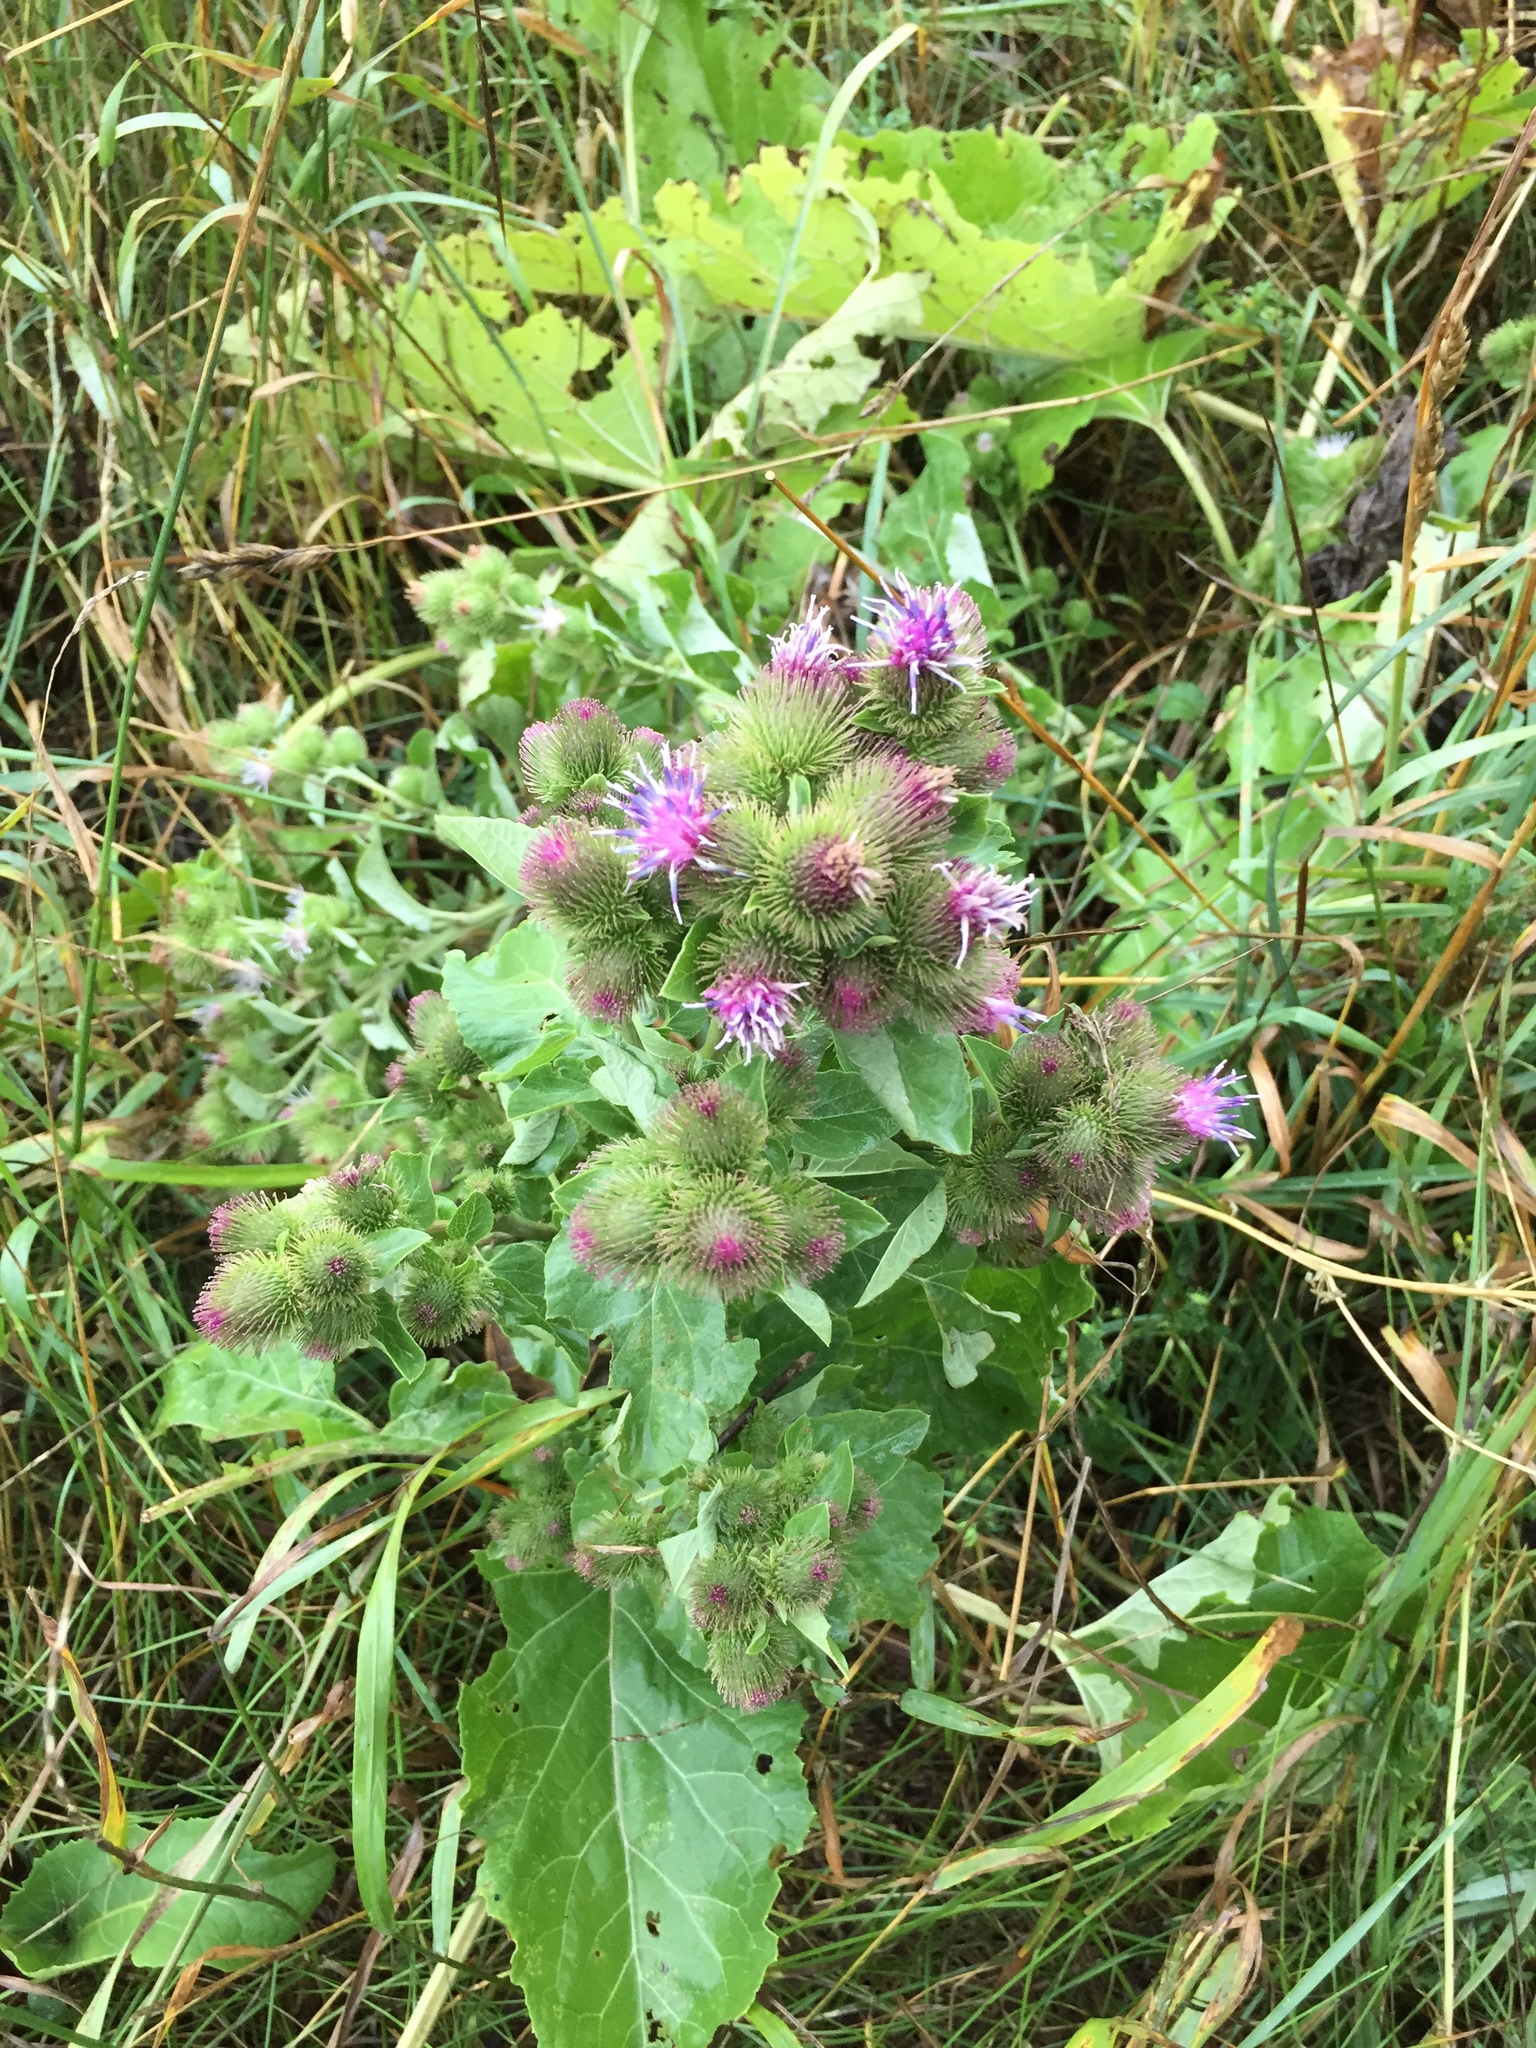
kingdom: Plantae
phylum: Tracheophyta
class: Magnoliopsida
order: Asterales
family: Asteraceae
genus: Arctium
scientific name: Arctium minus
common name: Lesser burdock
